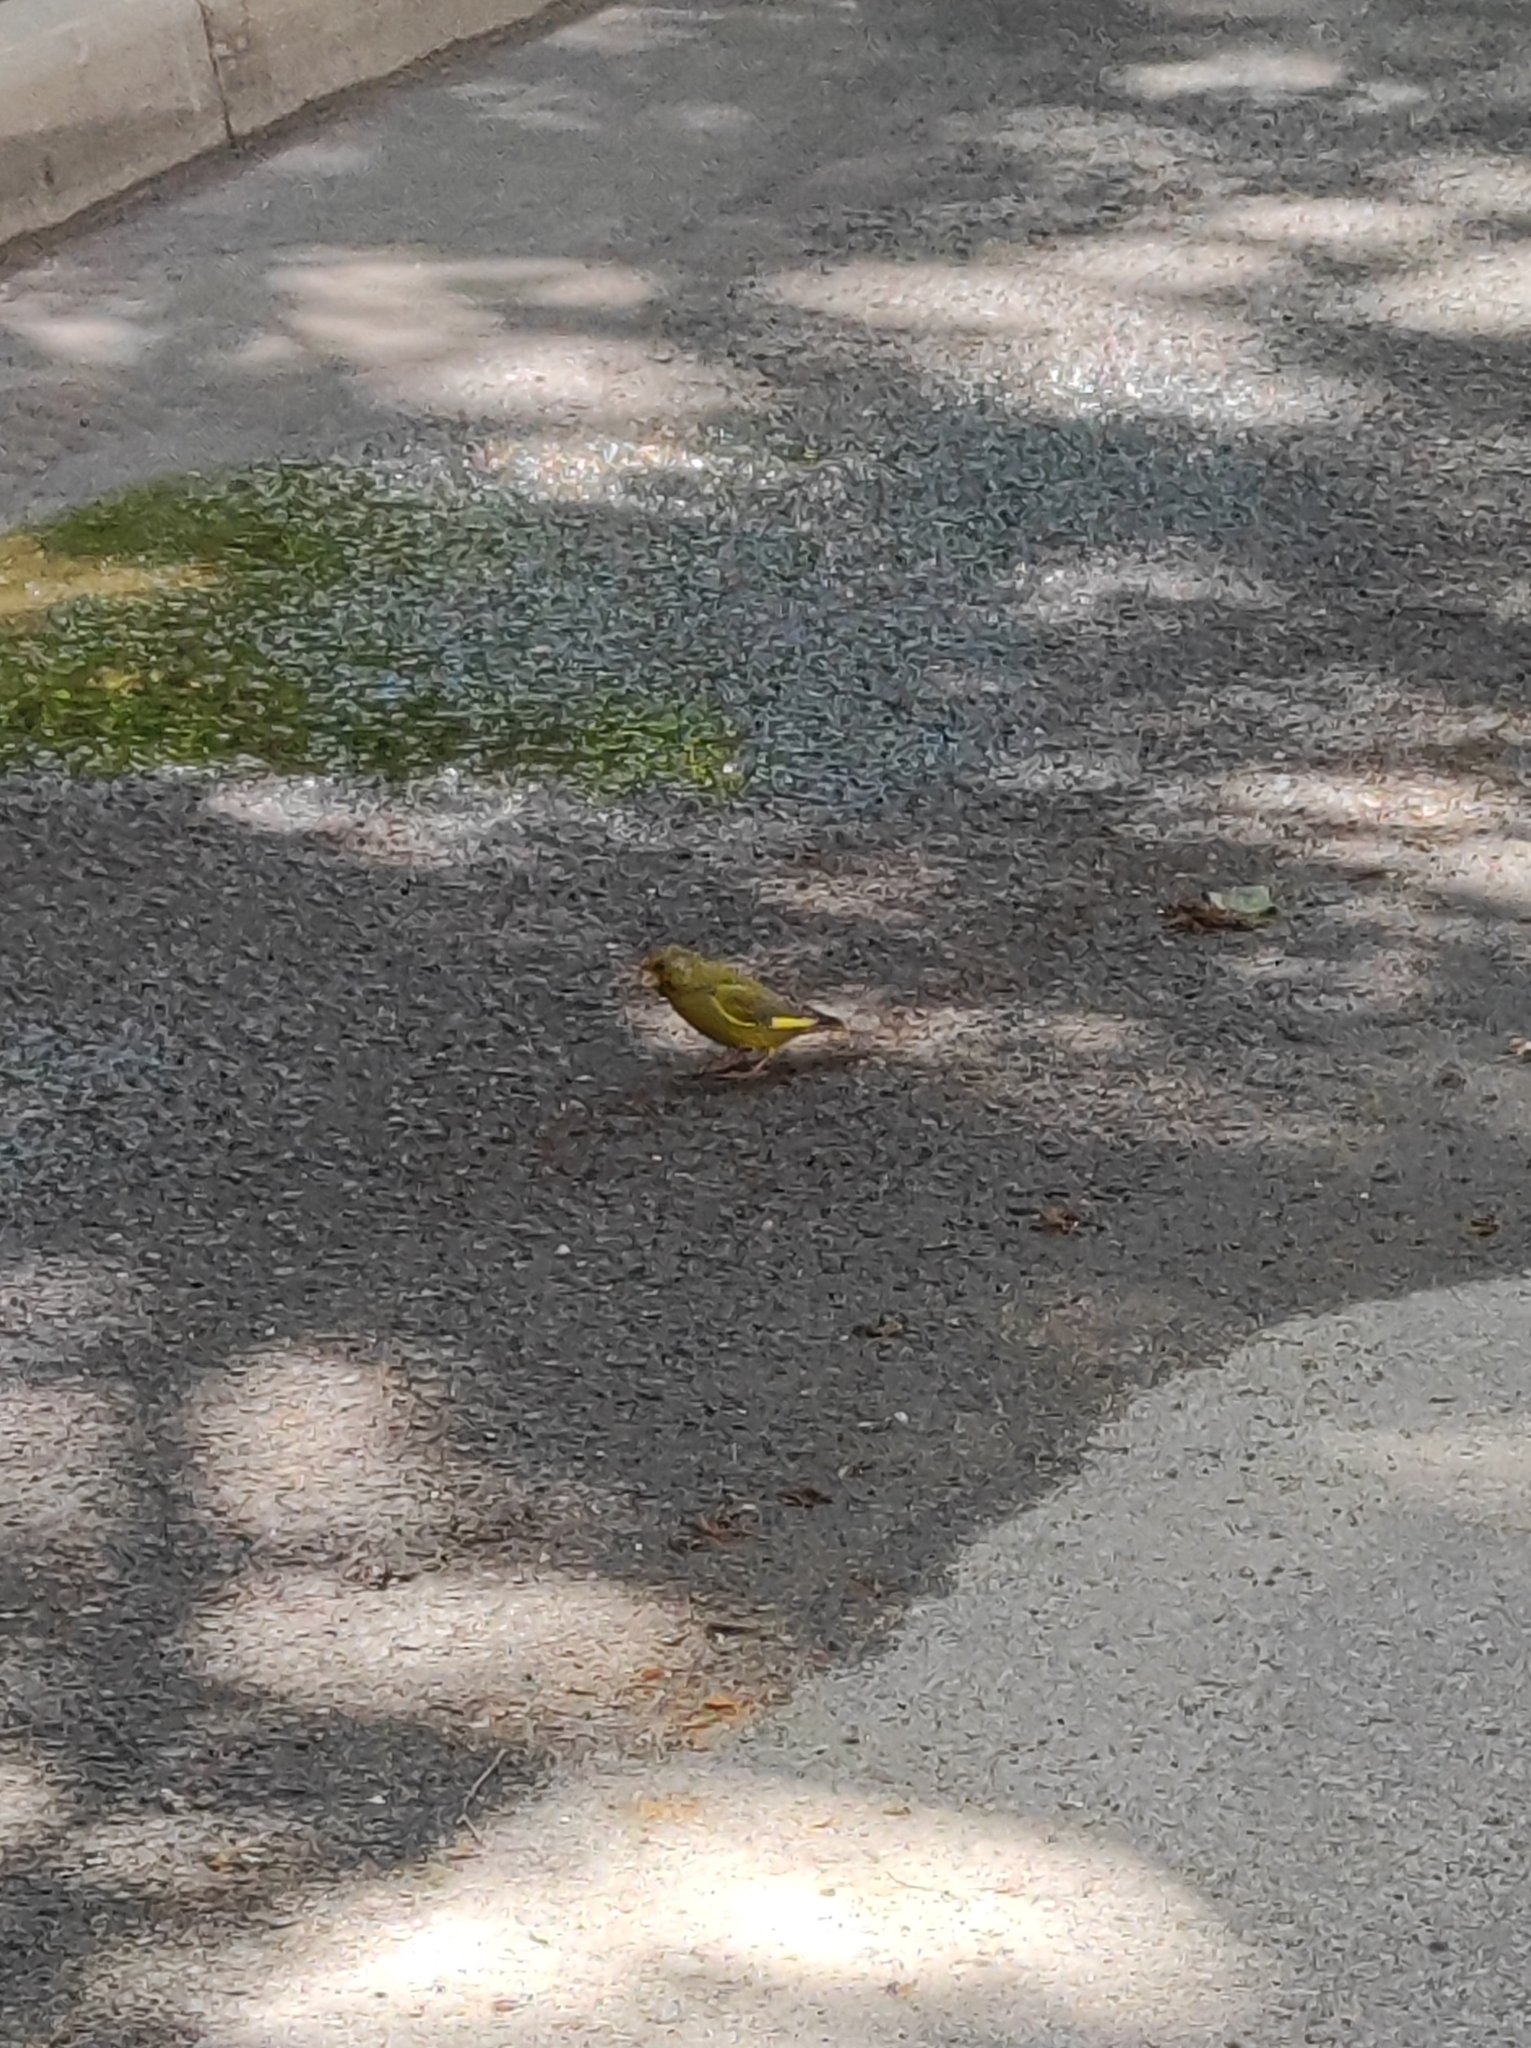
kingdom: Plantae
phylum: Tracheophyta
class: Liliopsida
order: Poales
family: Poaceae
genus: Chloris
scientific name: Chloris chloris
